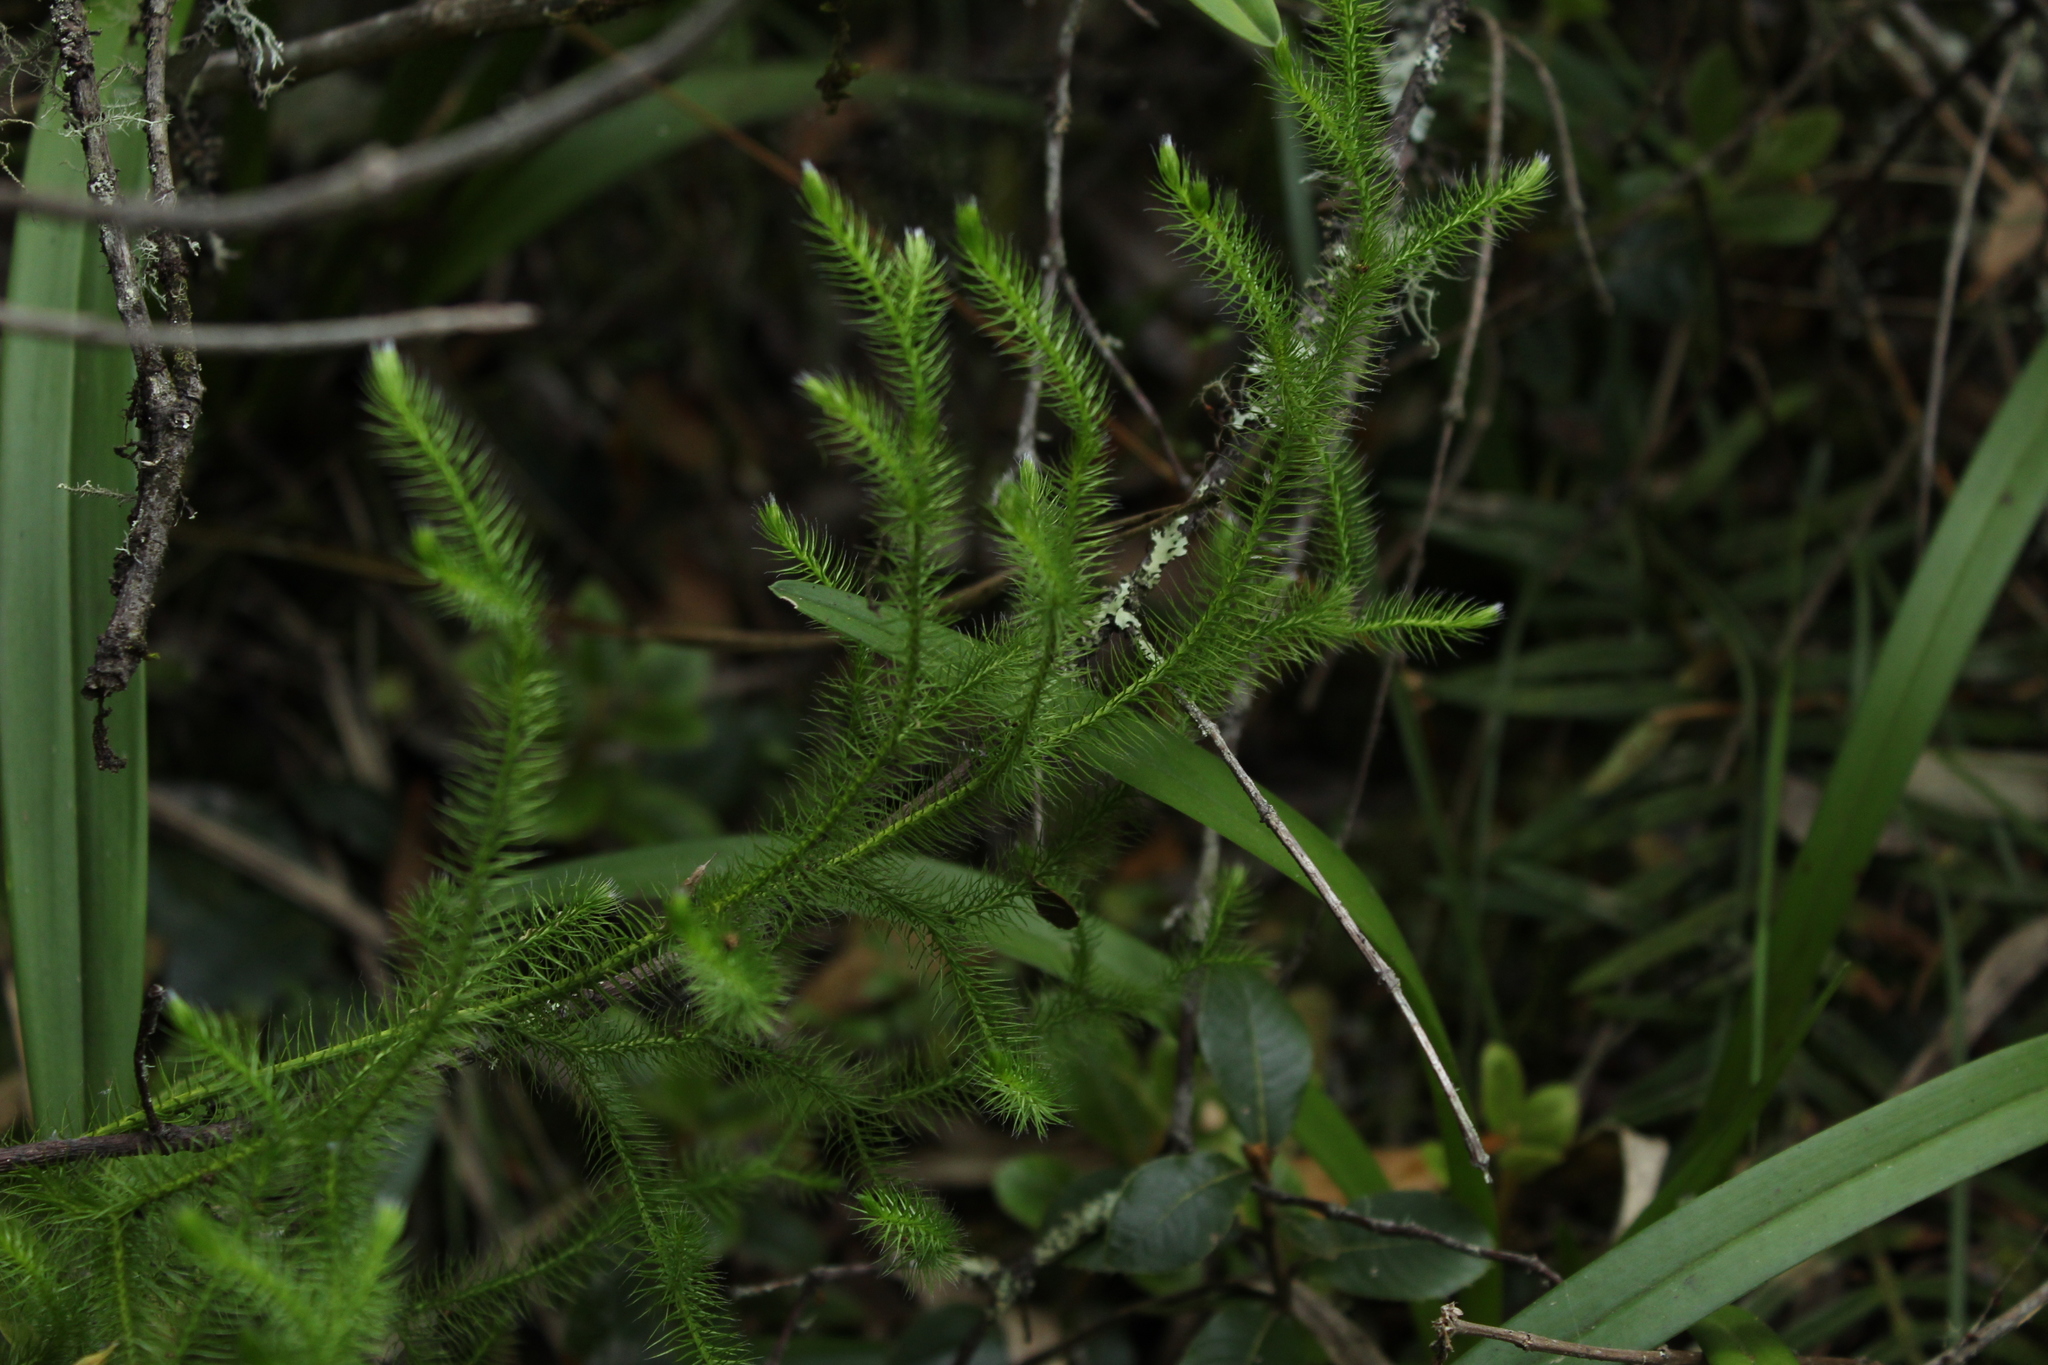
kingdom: Plantae
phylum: Tracheophyta
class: Lycopodiopsida
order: Lycopodiales
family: Lycopodiaceae
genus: Lycopodium
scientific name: Lycopodium clavatum
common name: Stag's-horn clubmoss
